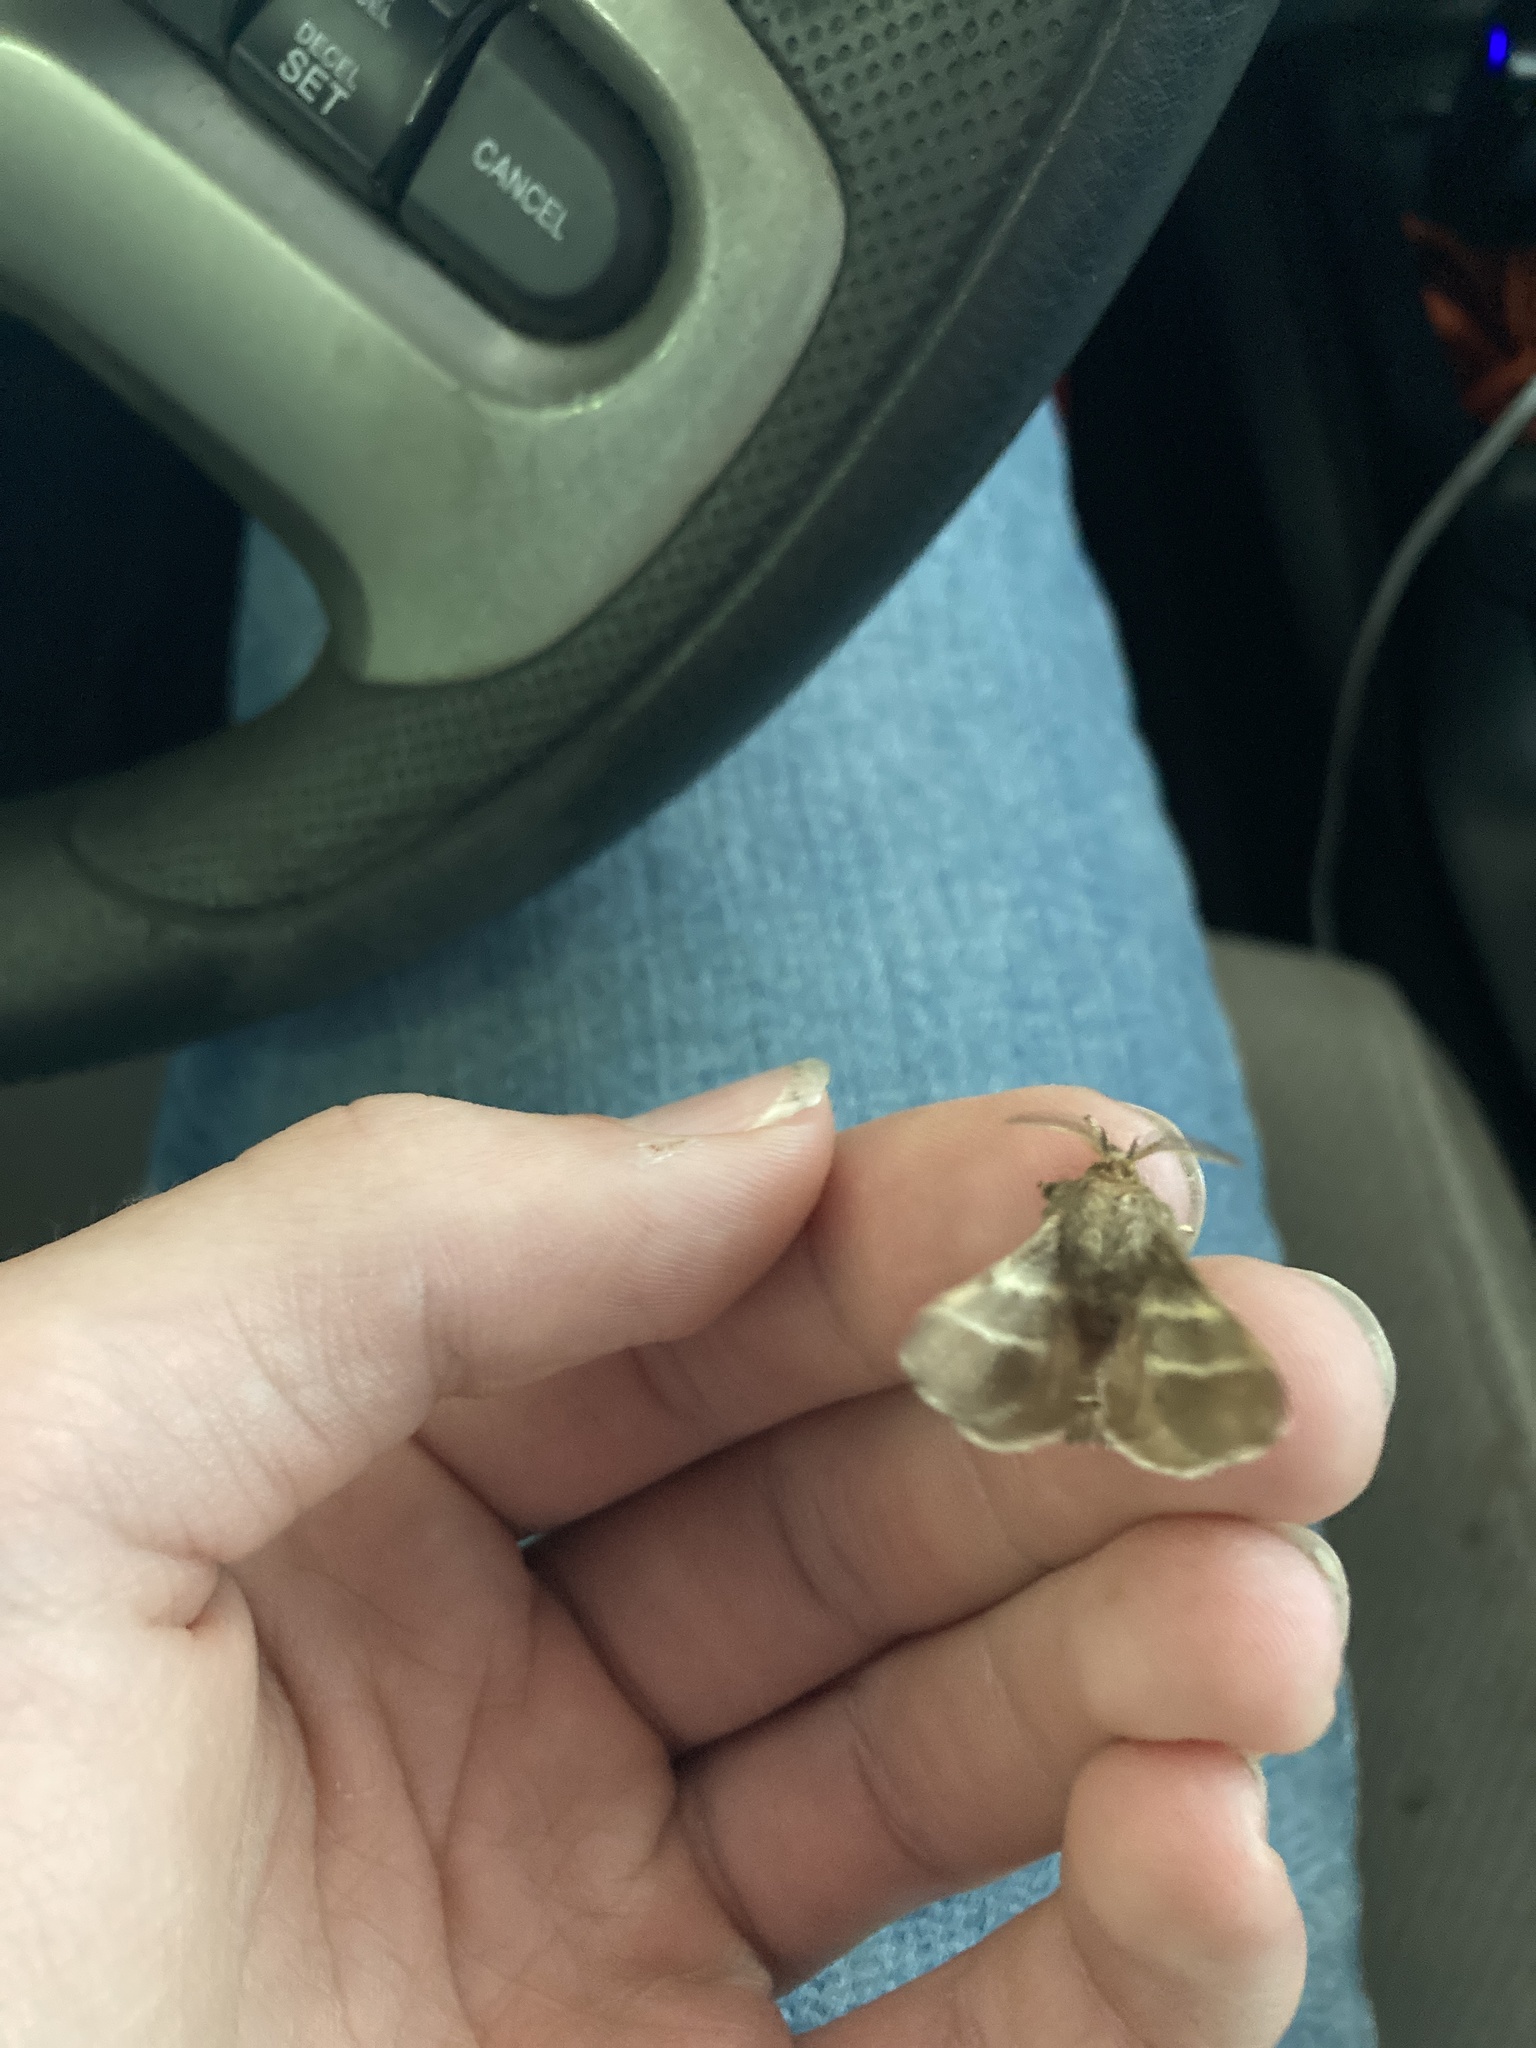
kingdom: Animalia
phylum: Arthropoda
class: Insecta
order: Lepidoptera
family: Lasiocampidae
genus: Malacosoma
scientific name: Malacosoma americana
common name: Eastern tent caterpillar moth
